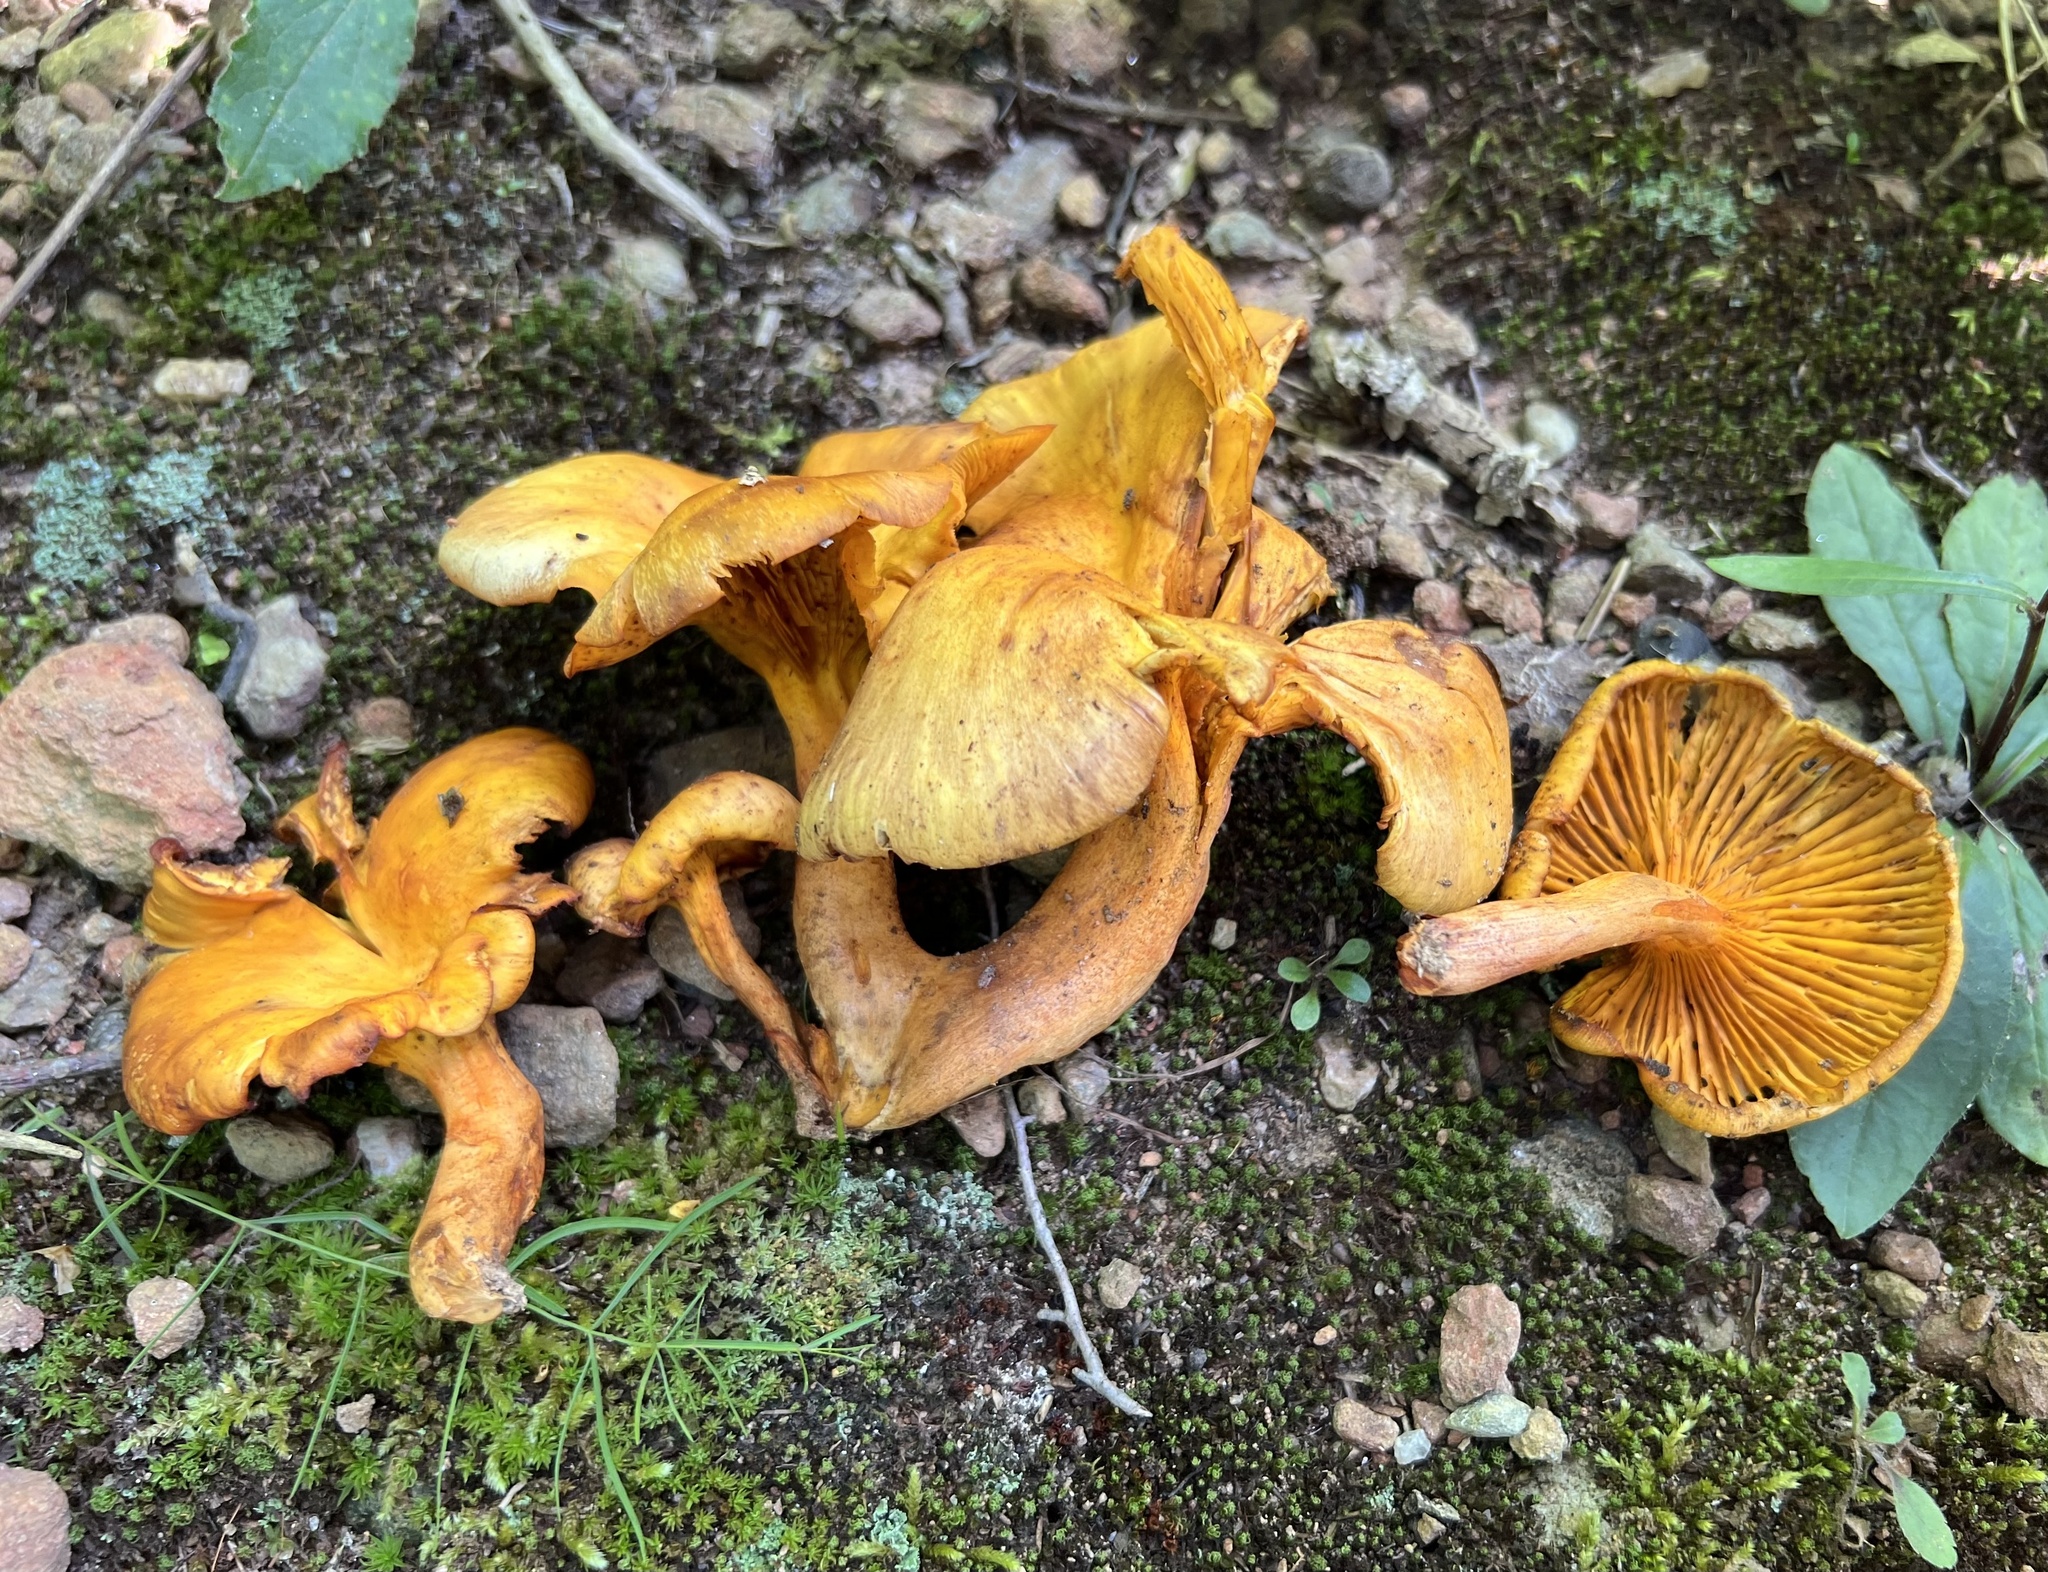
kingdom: Fungi
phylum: Basidiomycota
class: Agaricomycetes
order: Agaricales
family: Omphalotaceae
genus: Omphalotus
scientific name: Omphalotus illudens
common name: Jack o lantern
